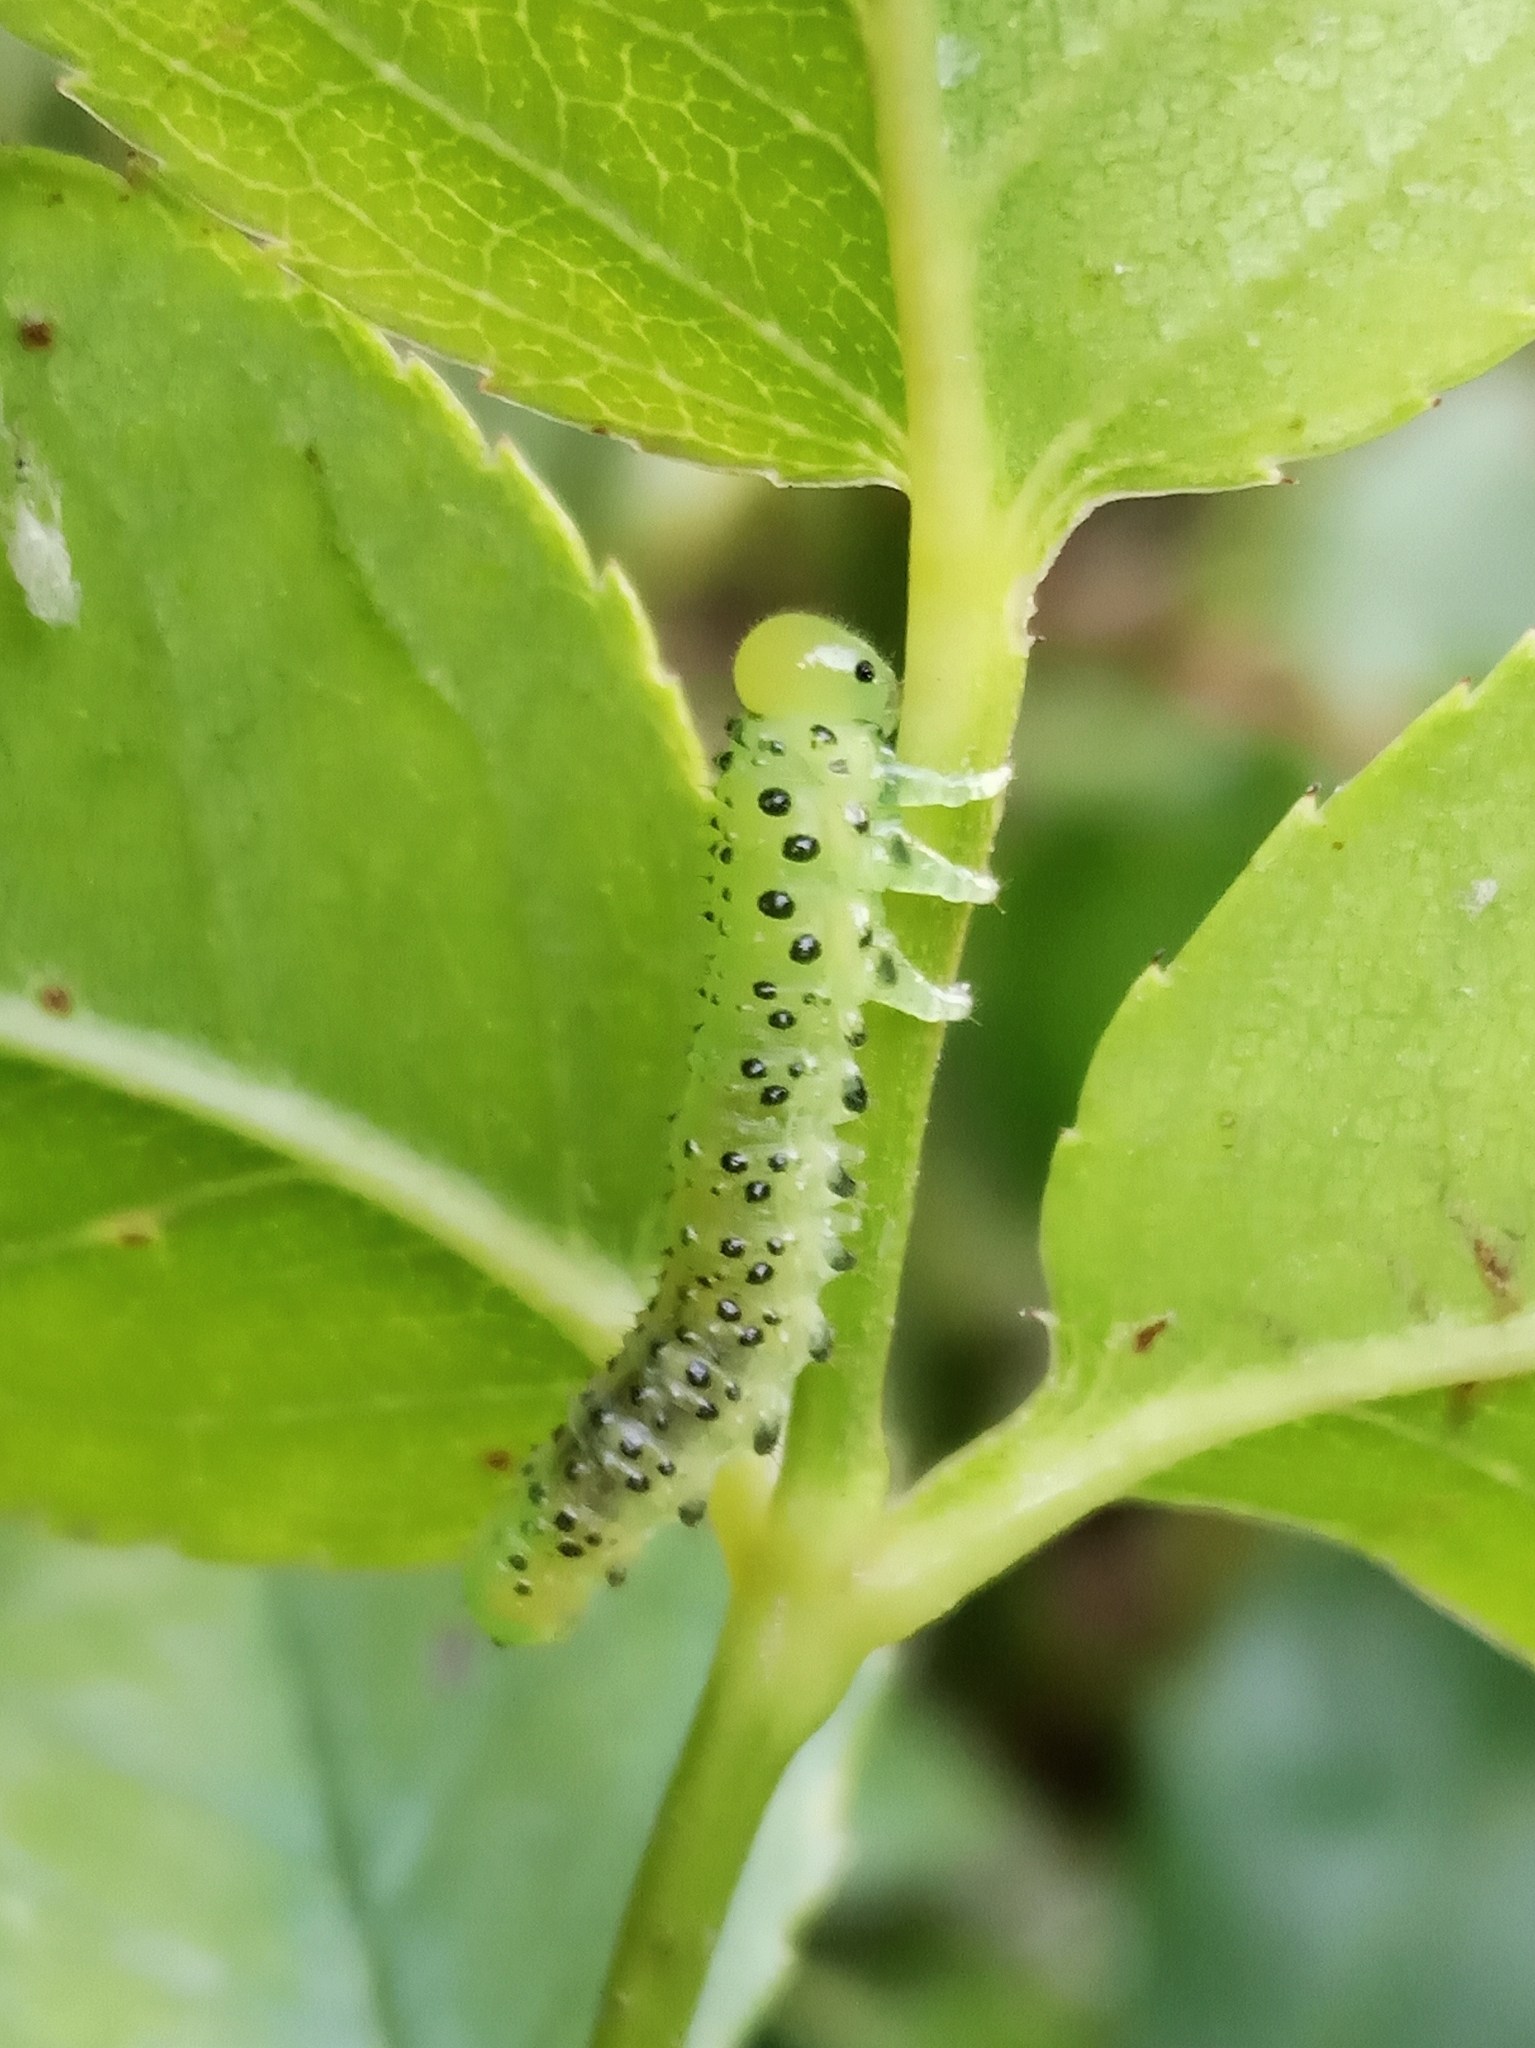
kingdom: Animalia
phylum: Arthropoda
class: Insecta
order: Hymenoptera
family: Argidae
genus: Arge
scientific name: Arge ochropus
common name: Argid sawfly
